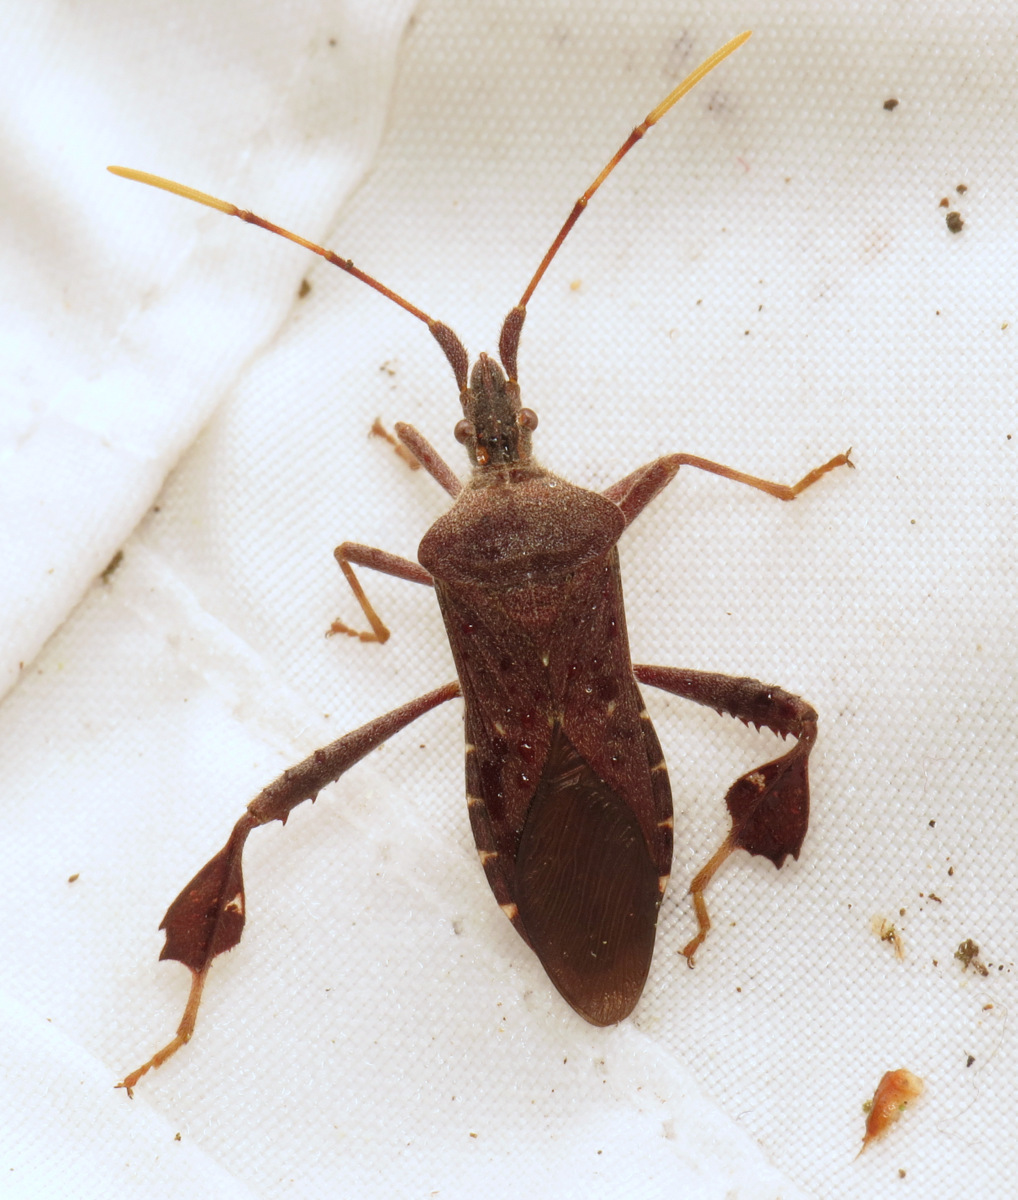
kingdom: Animalia
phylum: Arthropoda
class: Insecta
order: Hemiptera
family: Coreidae
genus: Leptoglossus
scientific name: Leptoglossus oppositus
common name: Northern leaf-footed bug
